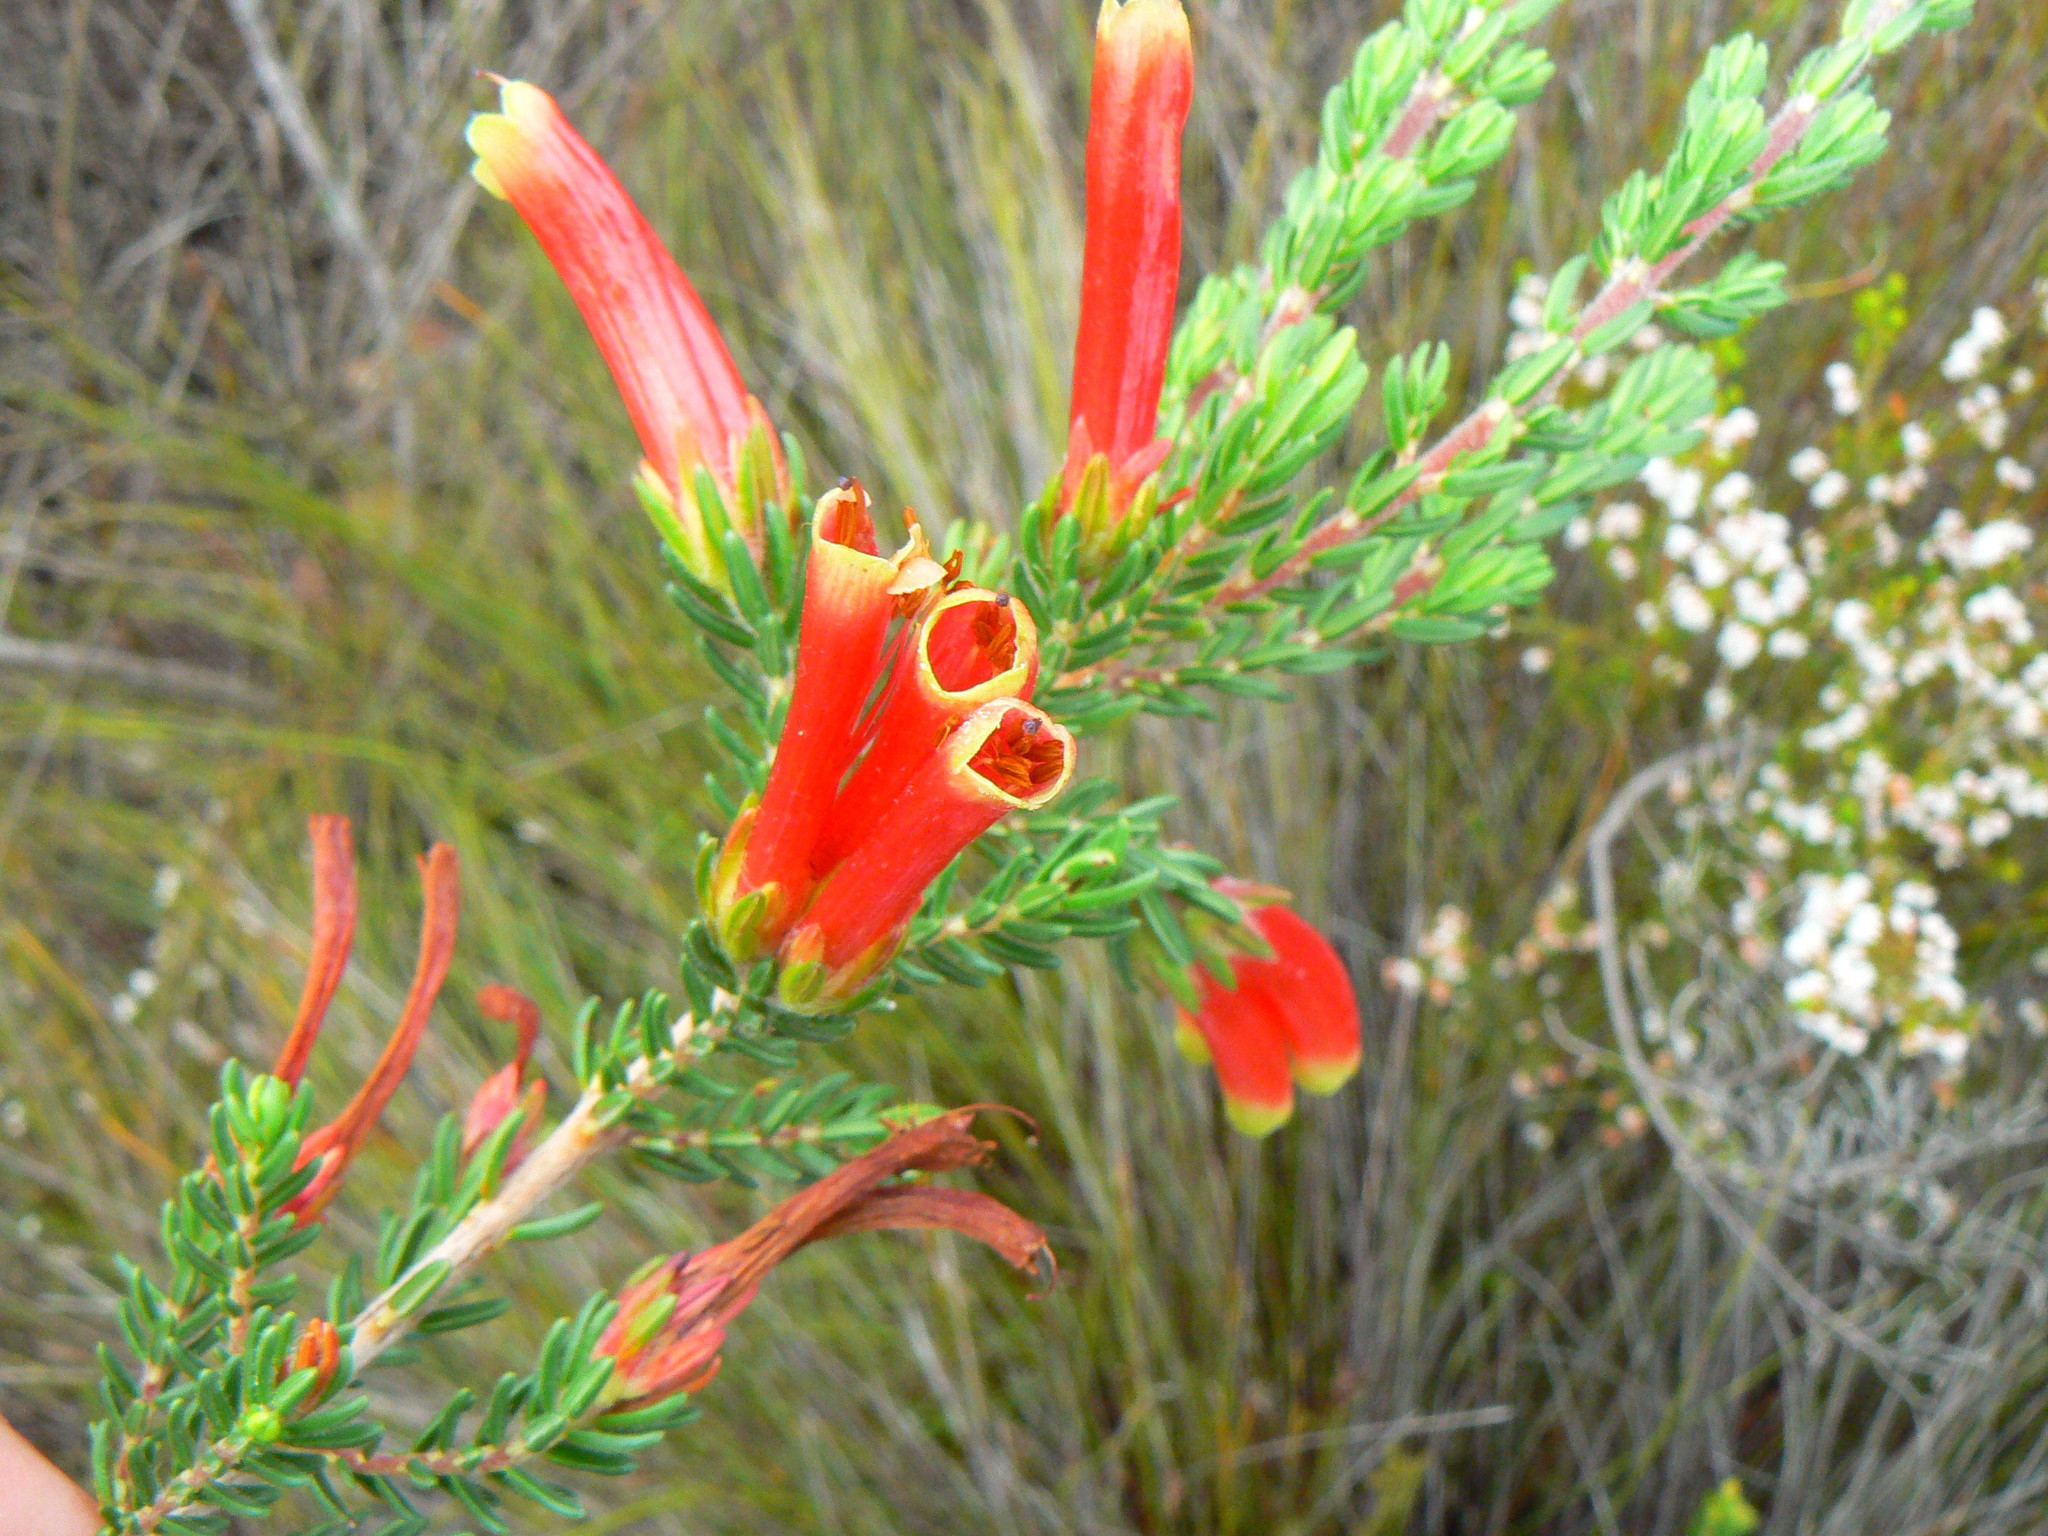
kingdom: Plantae
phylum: Tracheophyta
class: Magnoliopsida
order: Ericales
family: Ericaceae
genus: Erica
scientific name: Erica discolor
